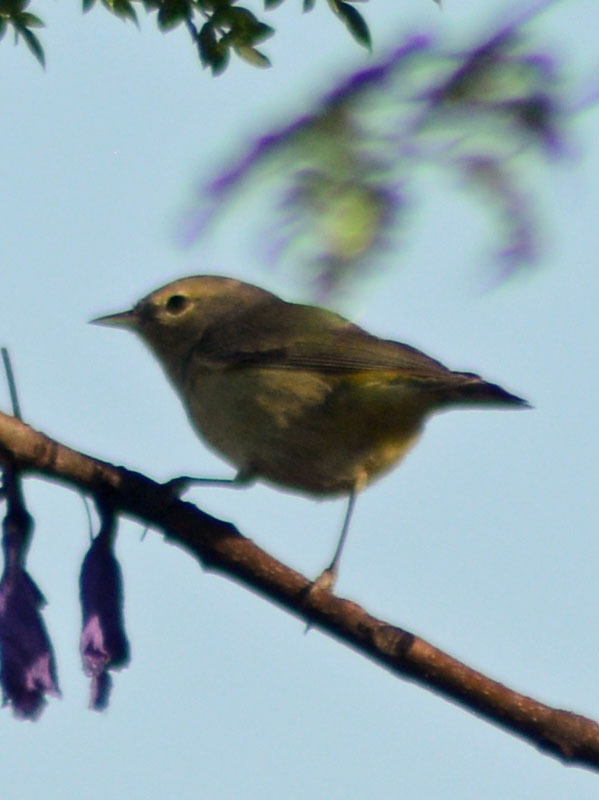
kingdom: Animalia
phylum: Chordata
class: Aves
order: Passeriformes
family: Parulidae
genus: Leiothlypis
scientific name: Leiothlypis celata
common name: Orange-crowned warbler
